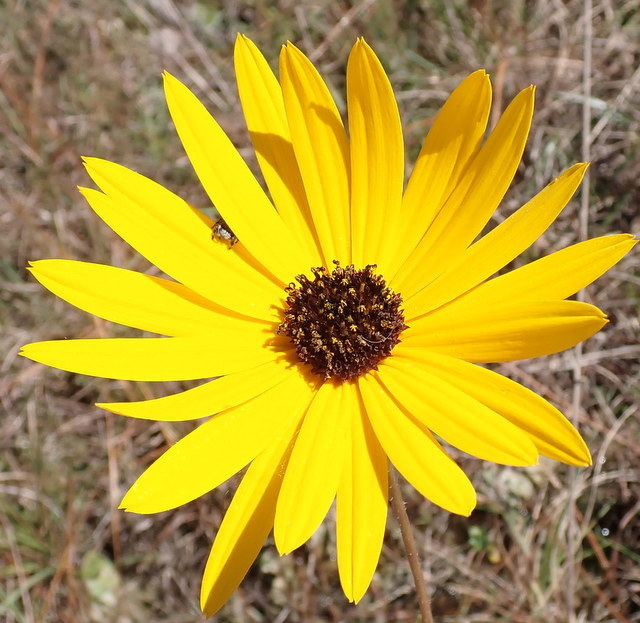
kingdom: Plantae
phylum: Tracheophyta
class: Magnoliopsida
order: Asterales
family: Asteraceae
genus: Helianthus
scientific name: Helianthus heterophyllus
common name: Wetland sunflower
